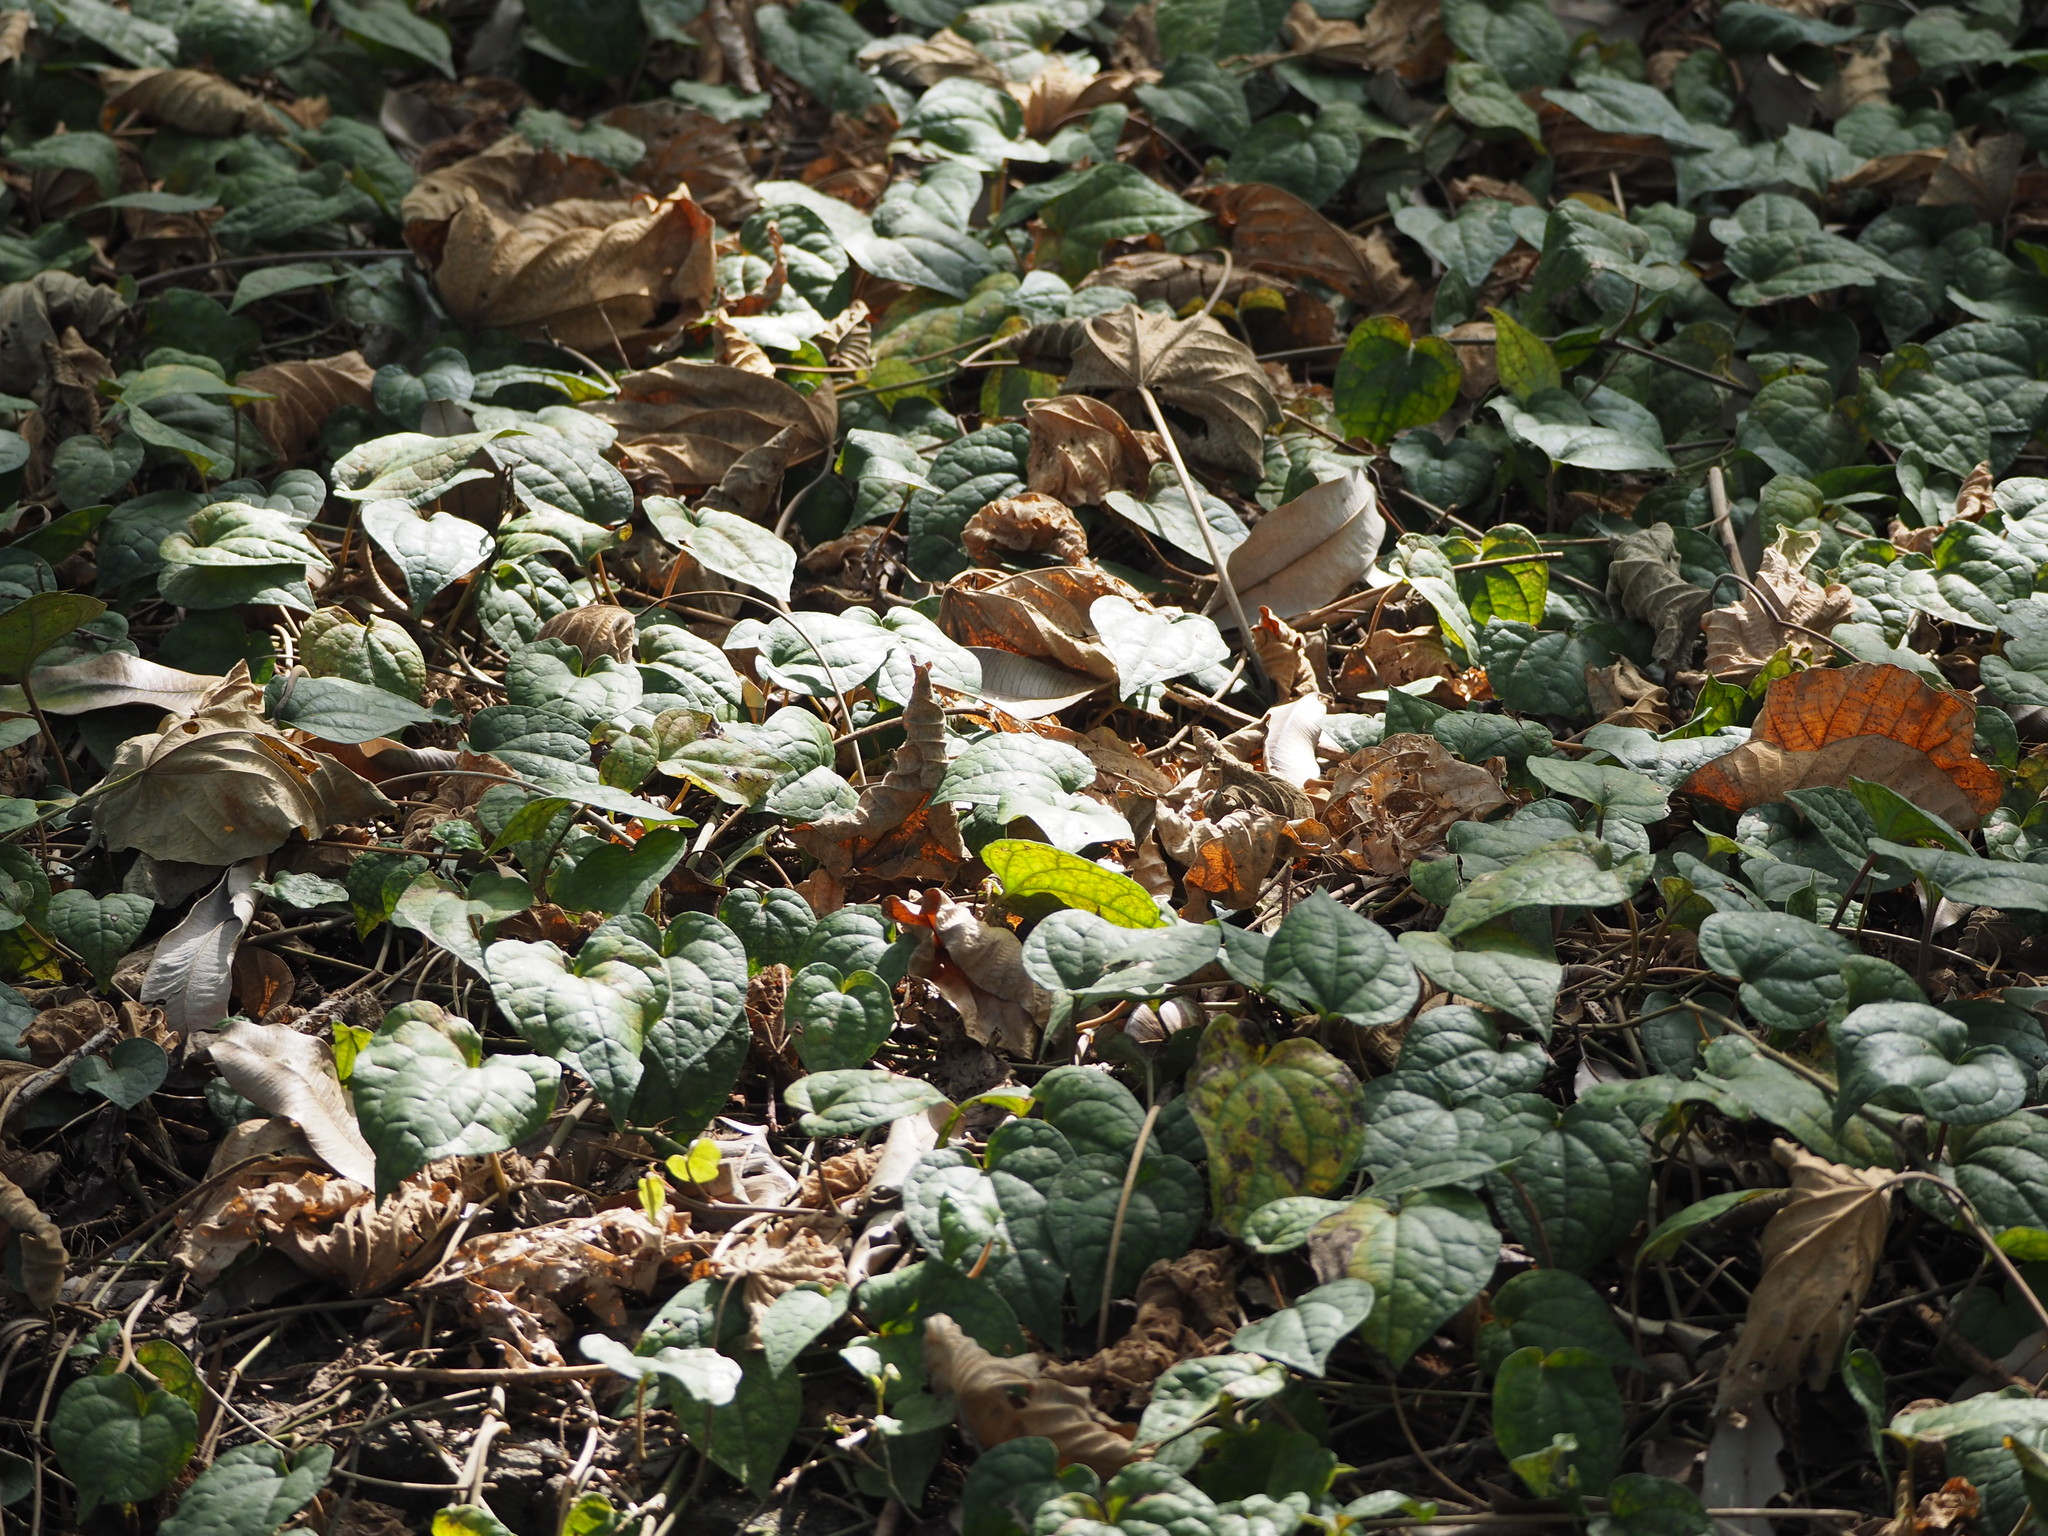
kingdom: Plantae
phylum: Tracheophyta
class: Magnoliopsida
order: Piperales
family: Piperaceae
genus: Piper
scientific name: Piper taiwanense
